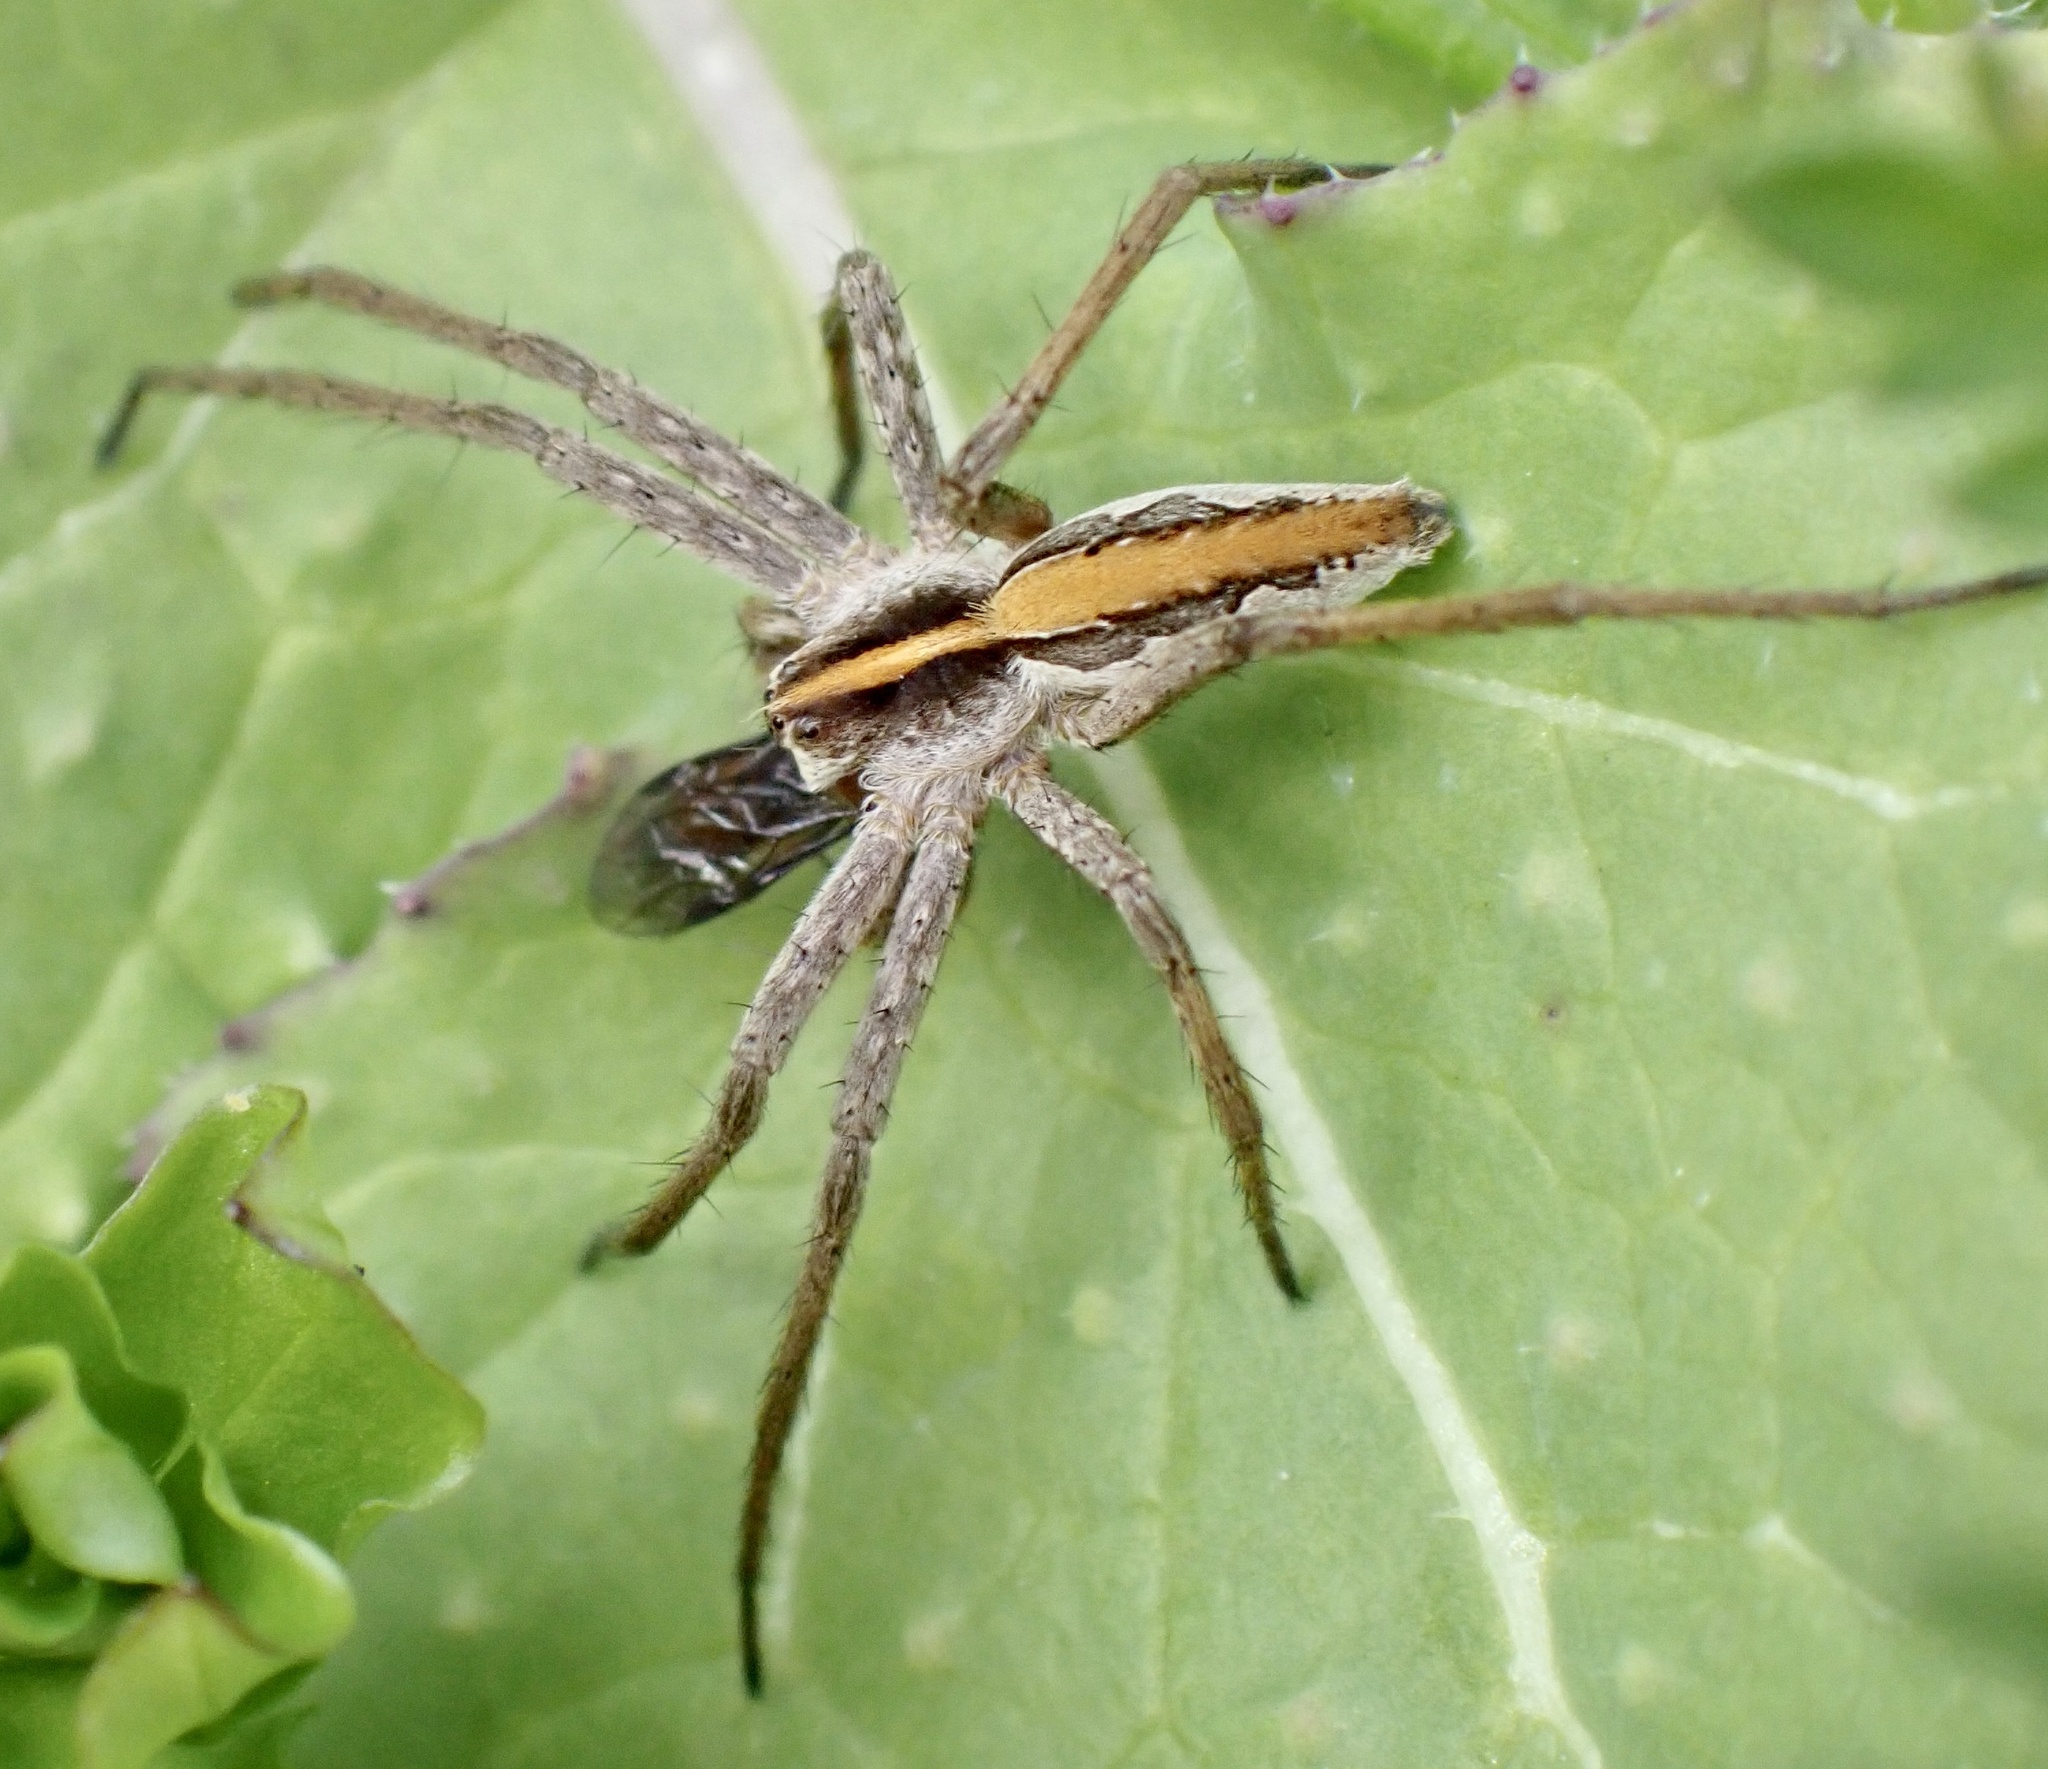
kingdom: Animalia
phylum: Arthropoda
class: Arachnida
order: Araneae
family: Pisauridae
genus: Pisaura
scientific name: Pisaura mirabilis
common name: Tent spider
